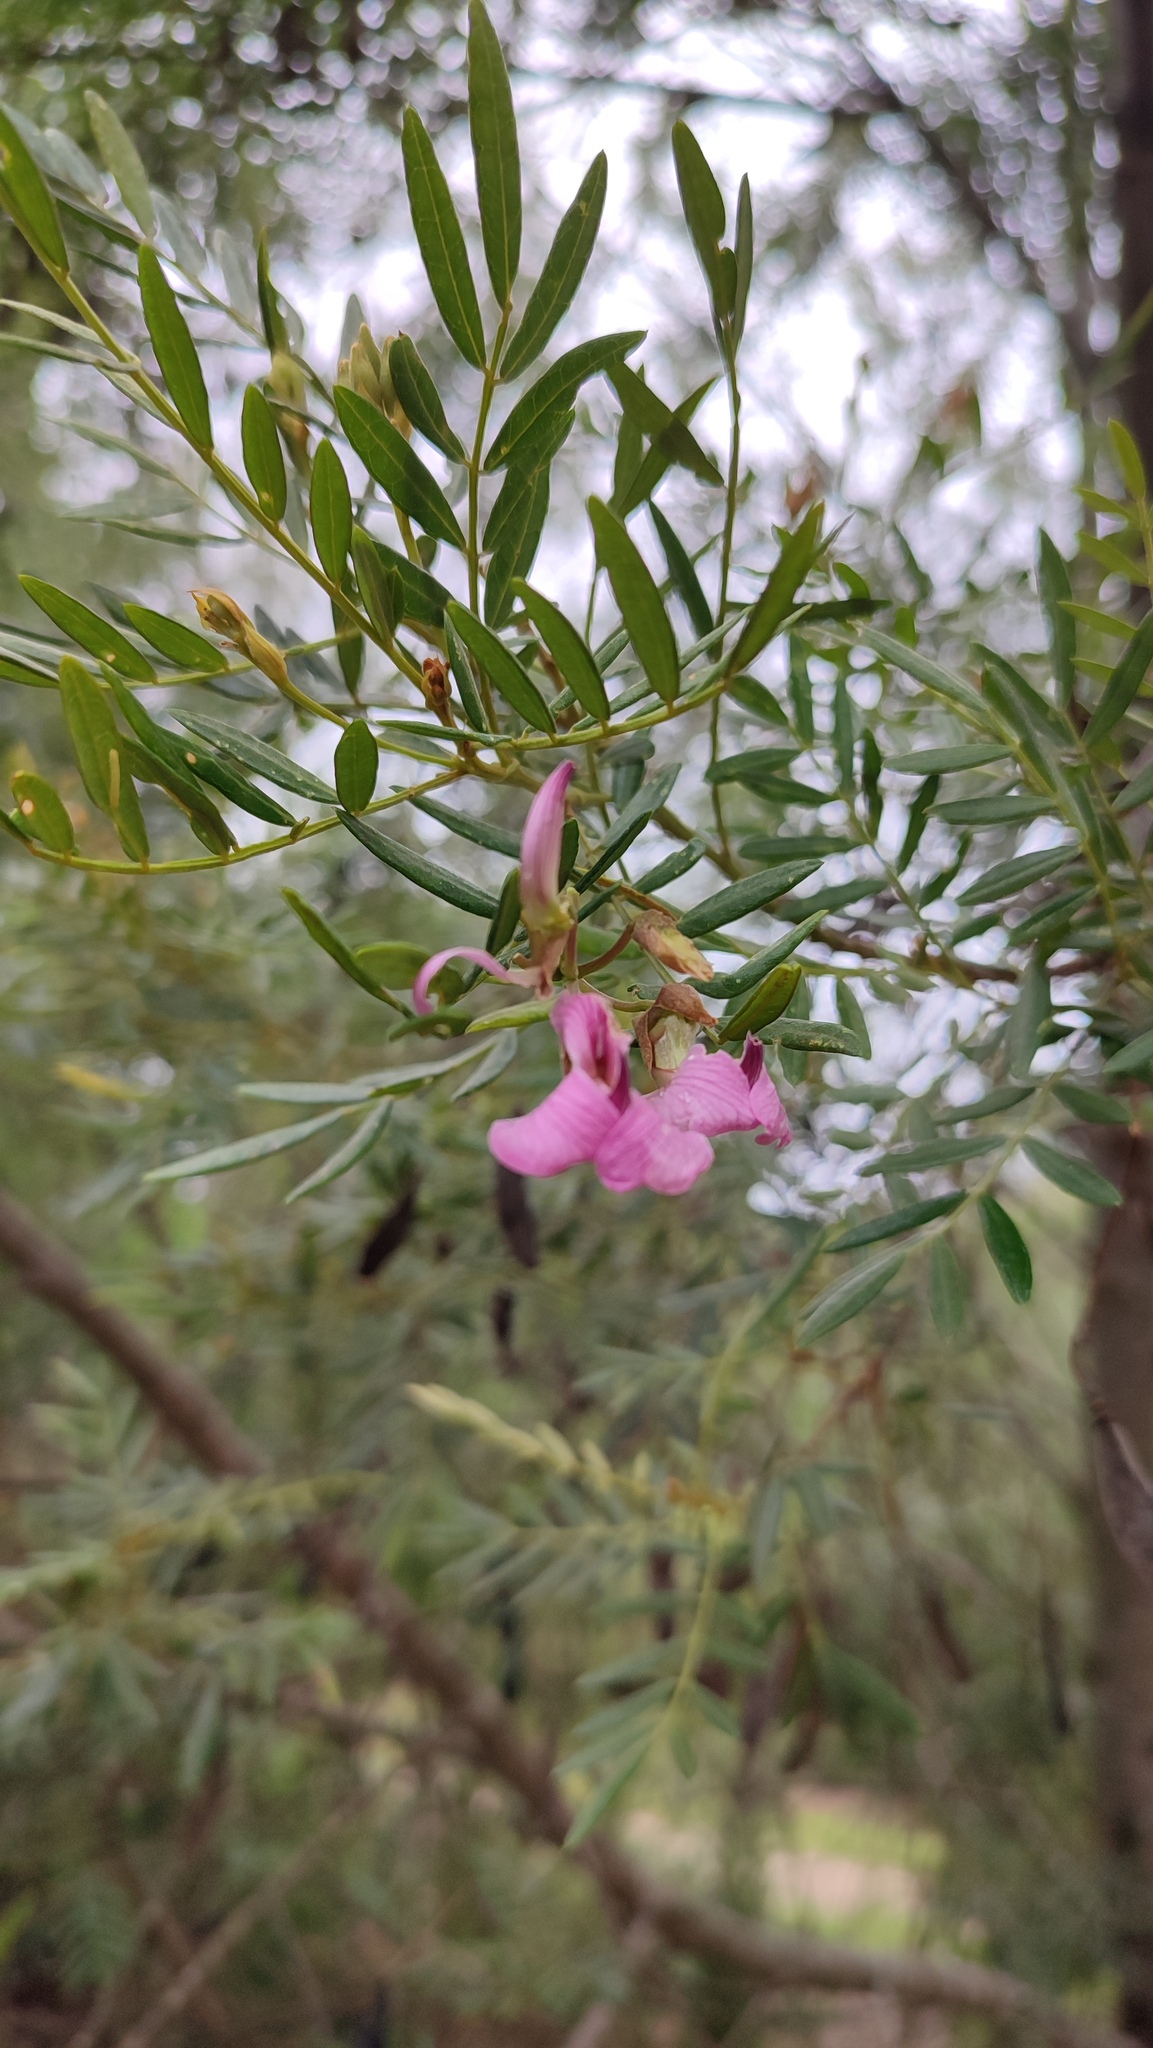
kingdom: Plantae
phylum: Tracheophyta
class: Magnoliopsida
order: Fabales
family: Fabaceae
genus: Virgilia
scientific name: Virgilia divaricata
